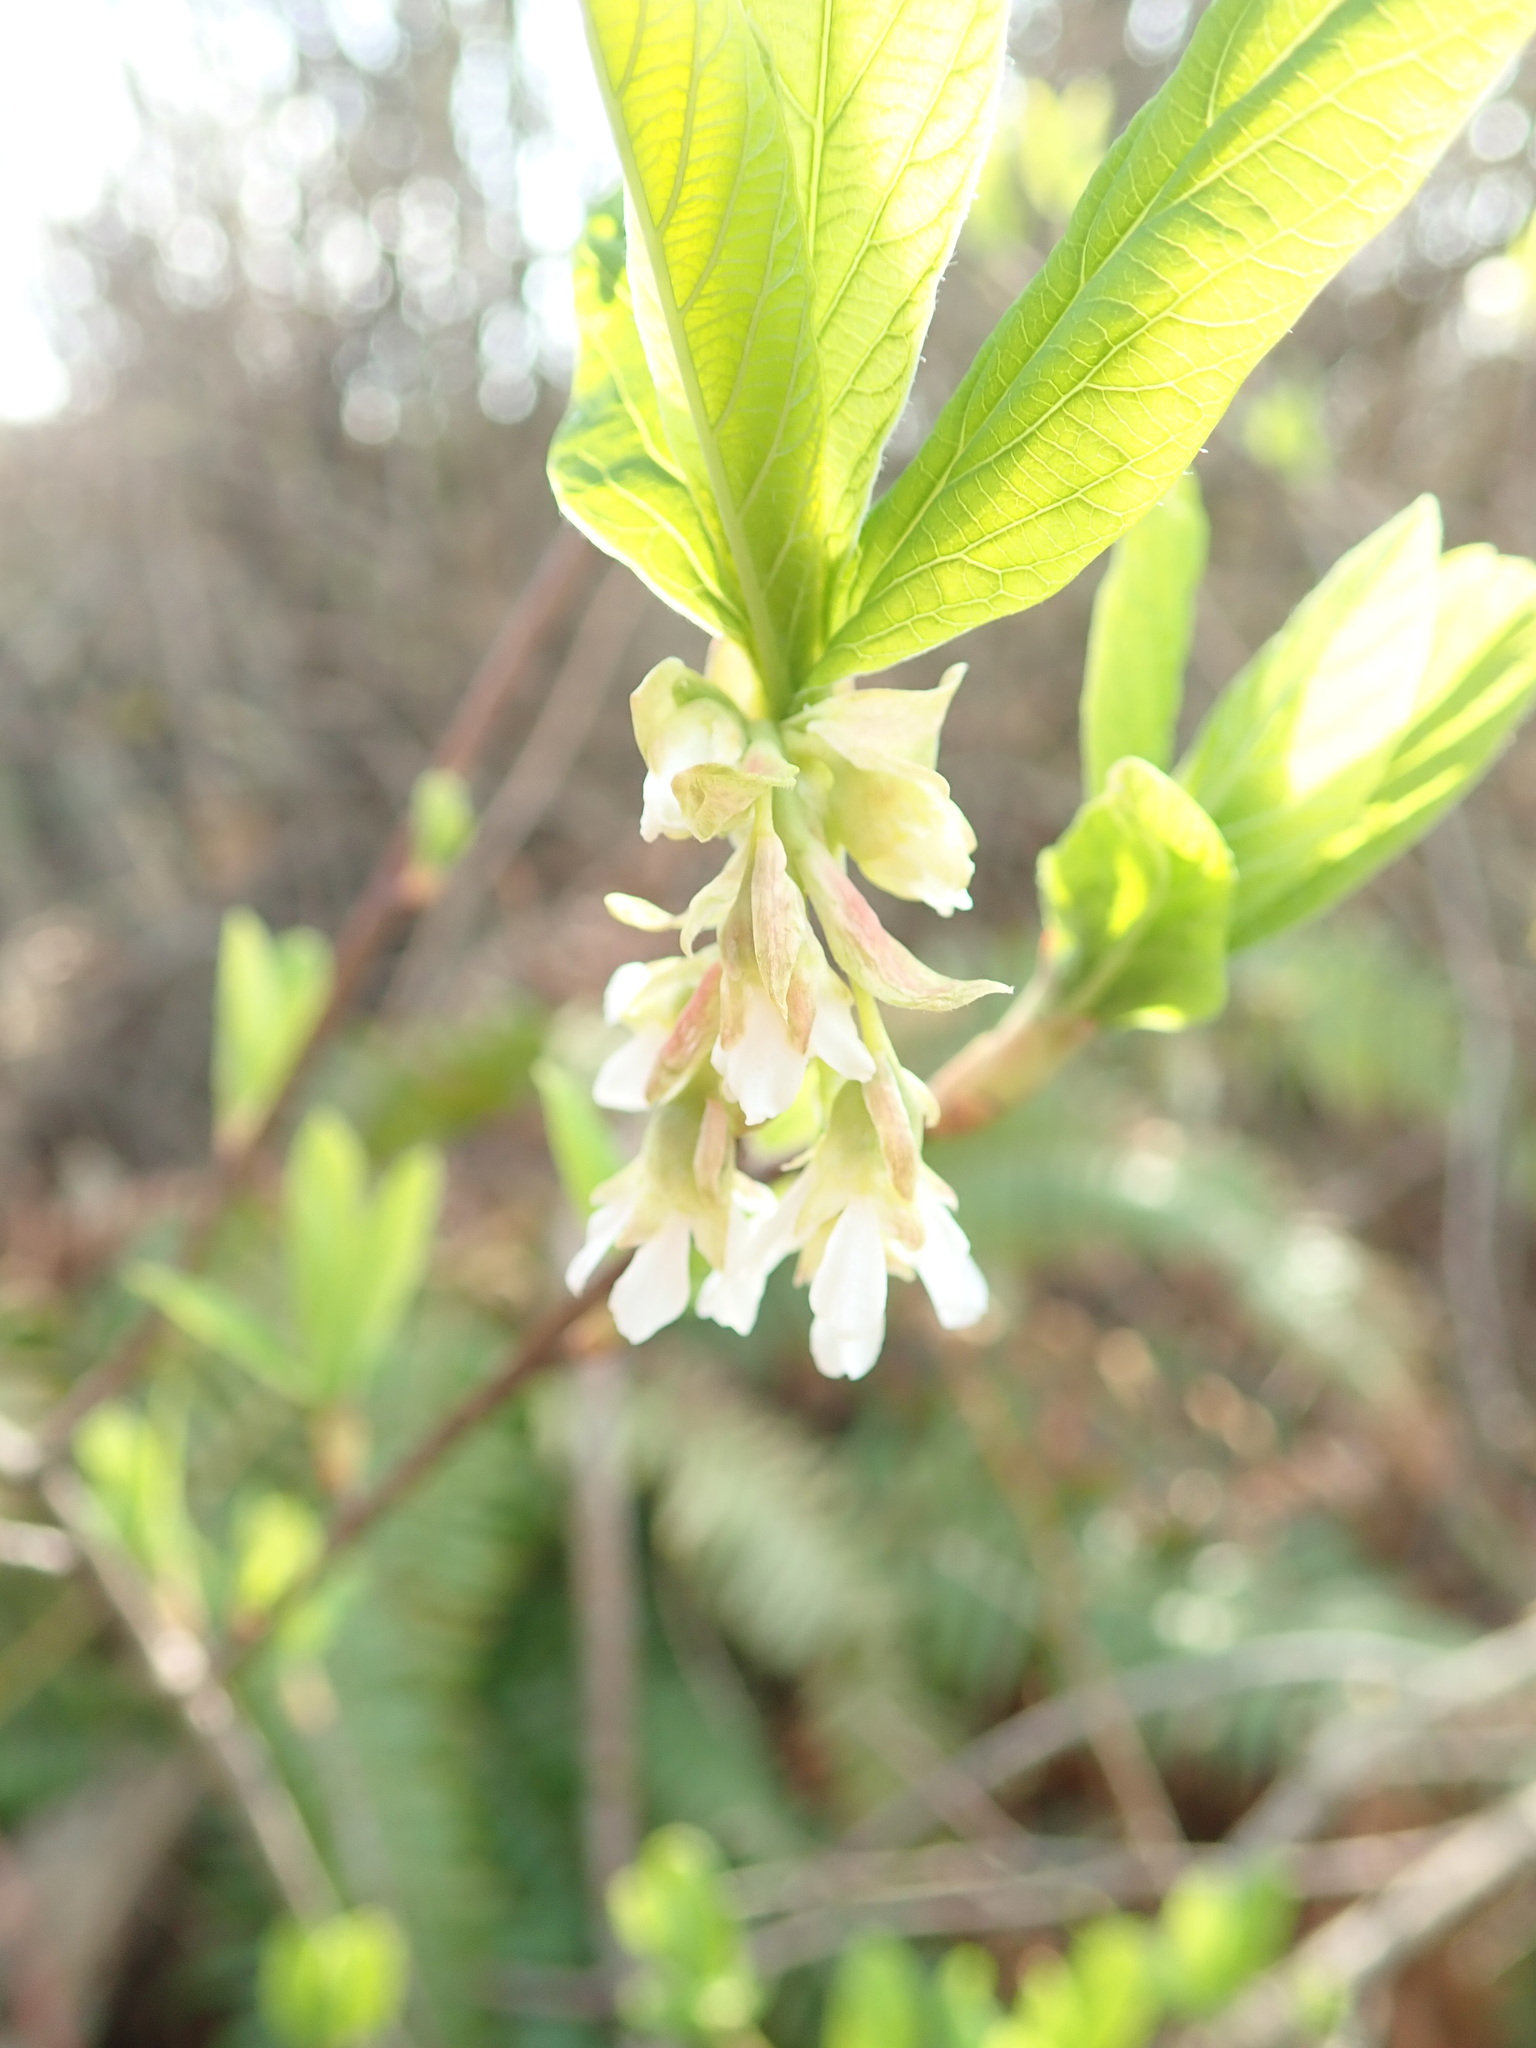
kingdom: Plantae
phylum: Tracheophyta
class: Magnoliopsida
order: Rosales
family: Rosaceae
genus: Oemleria
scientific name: Oemleria cerasiformis
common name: Osoberry
